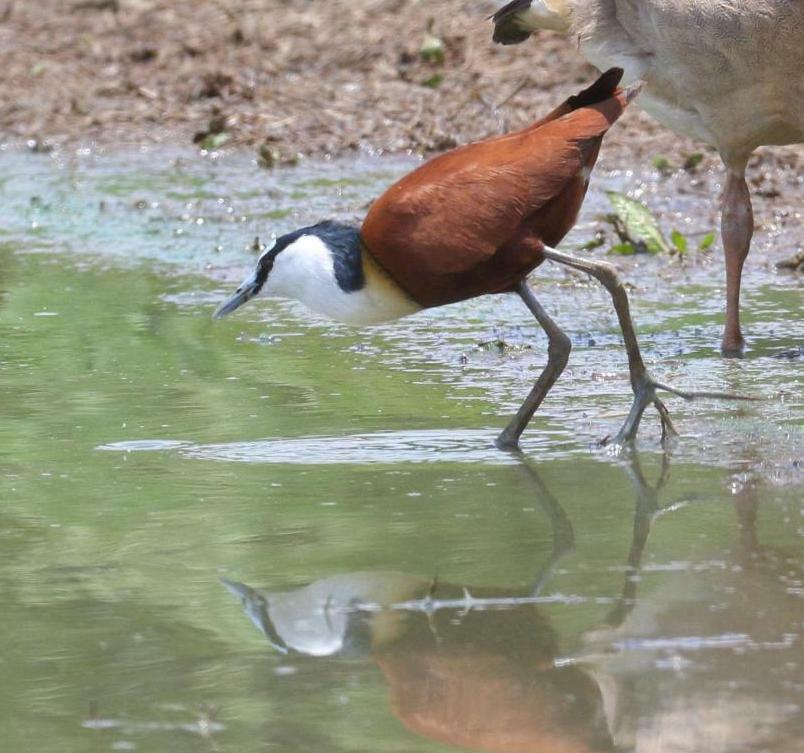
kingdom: Animalia
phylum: Chordata
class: Aves
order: Charadriiformes
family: Jacanidae
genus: Actophilornis
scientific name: Actophilornis africanus
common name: African jacana
